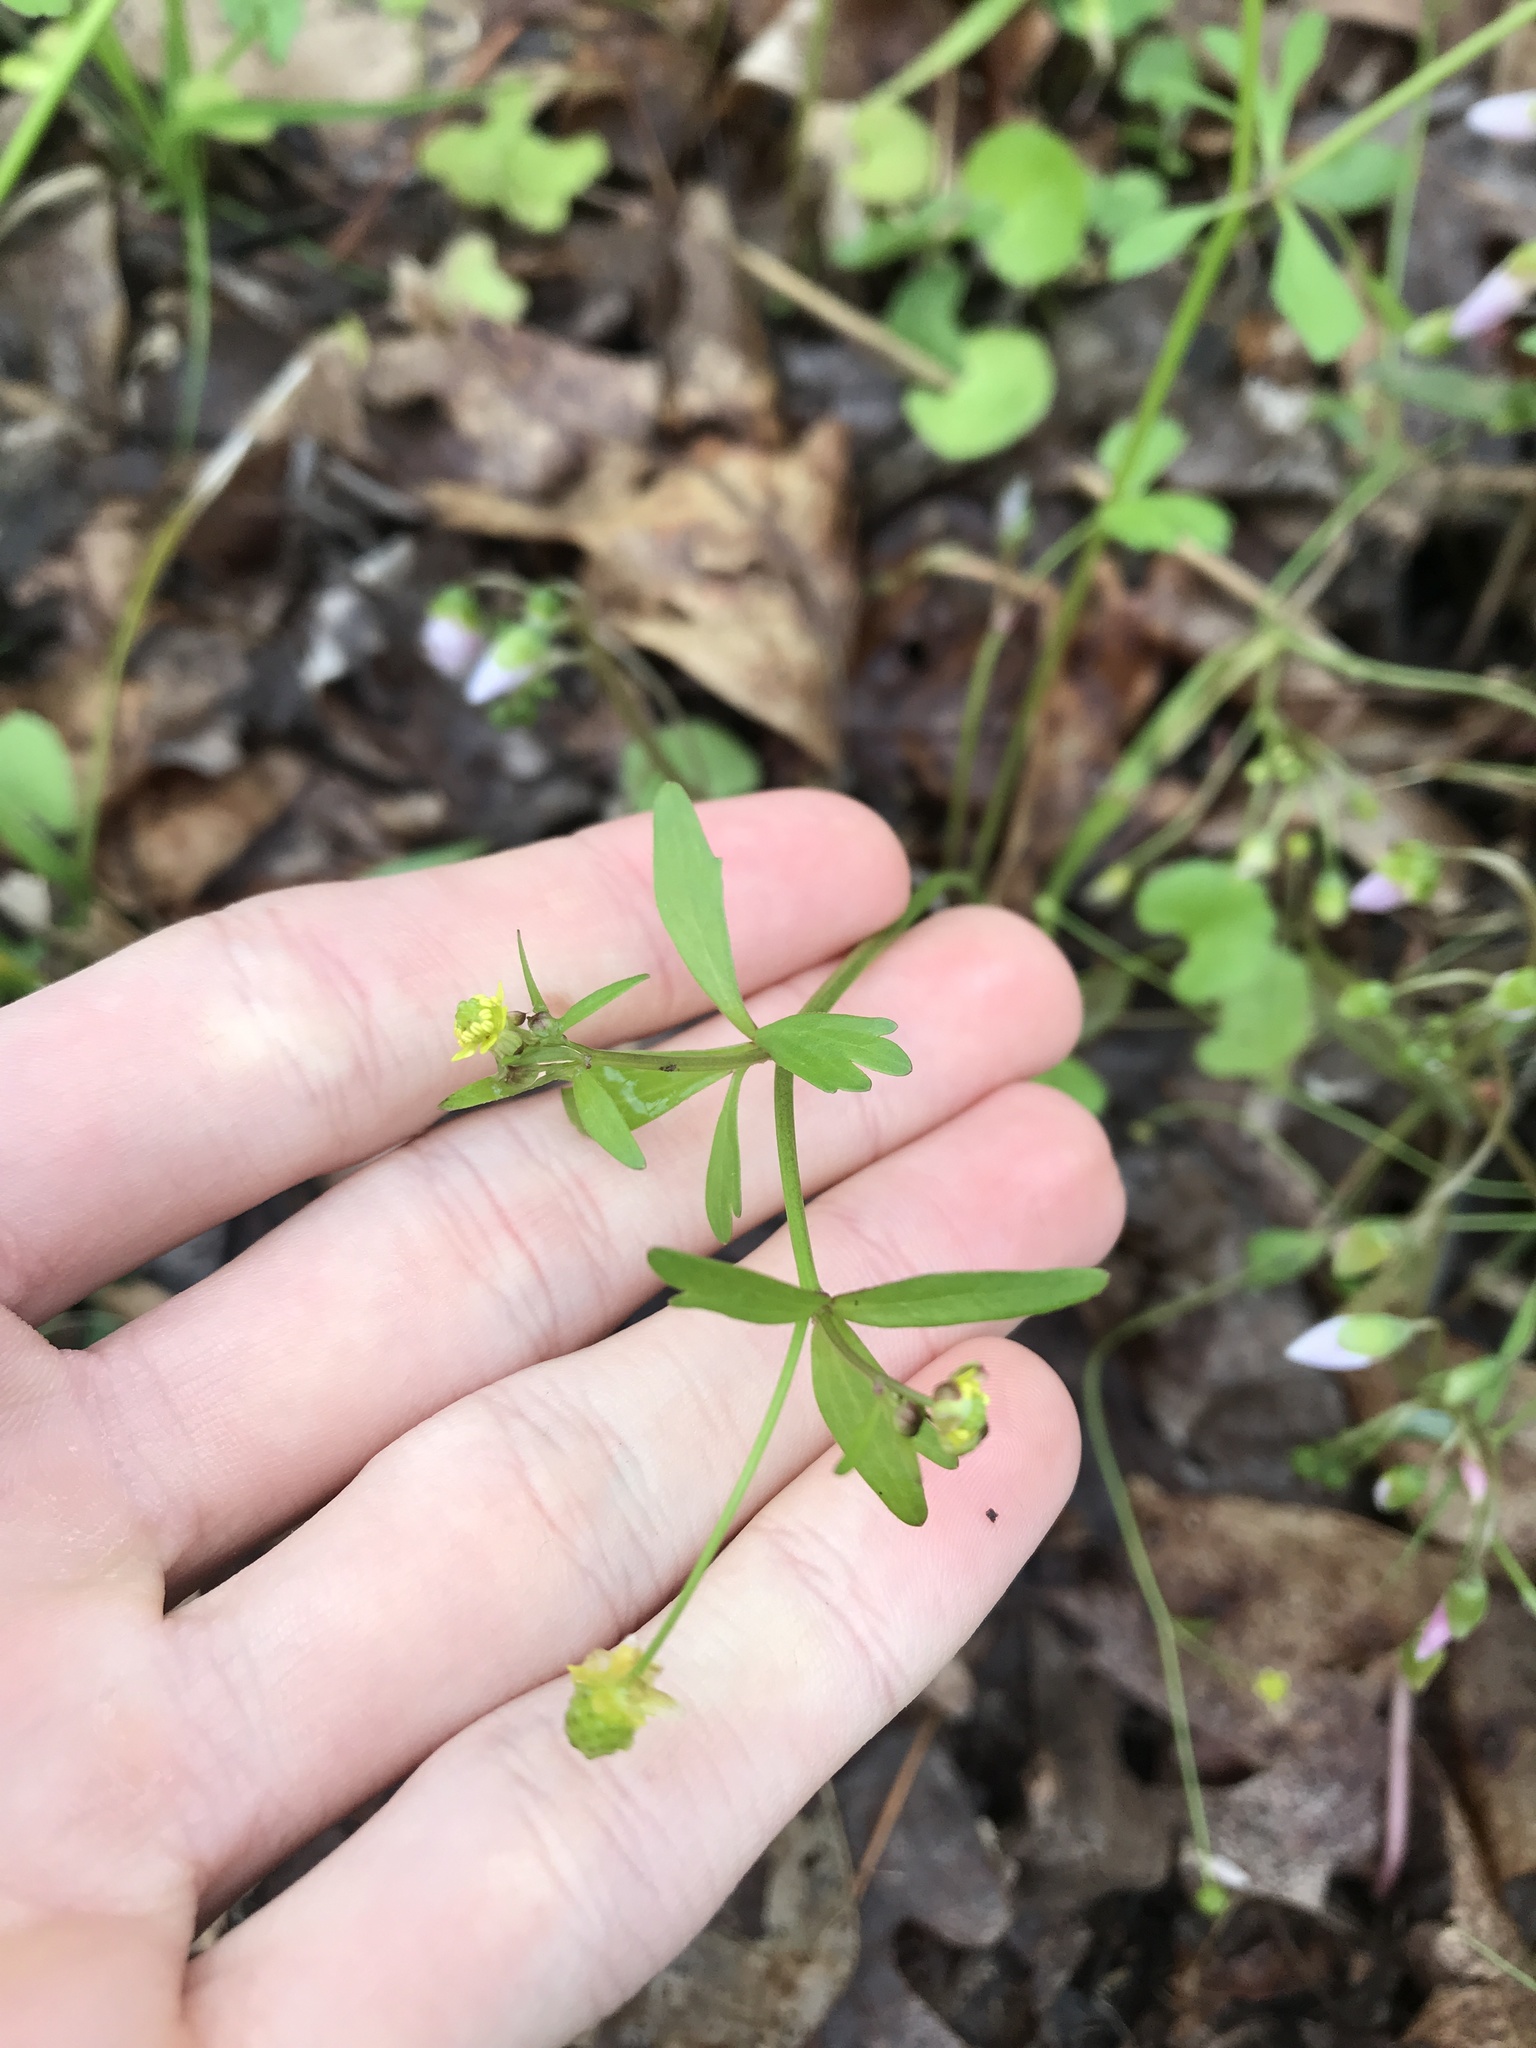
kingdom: Plantae
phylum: Tracheophyta
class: Magnoliopsida
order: Ranunculales
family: Ranunculaceae
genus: Ranunculus
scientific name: Ranunculus abortivus
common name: Early wood buttercup
